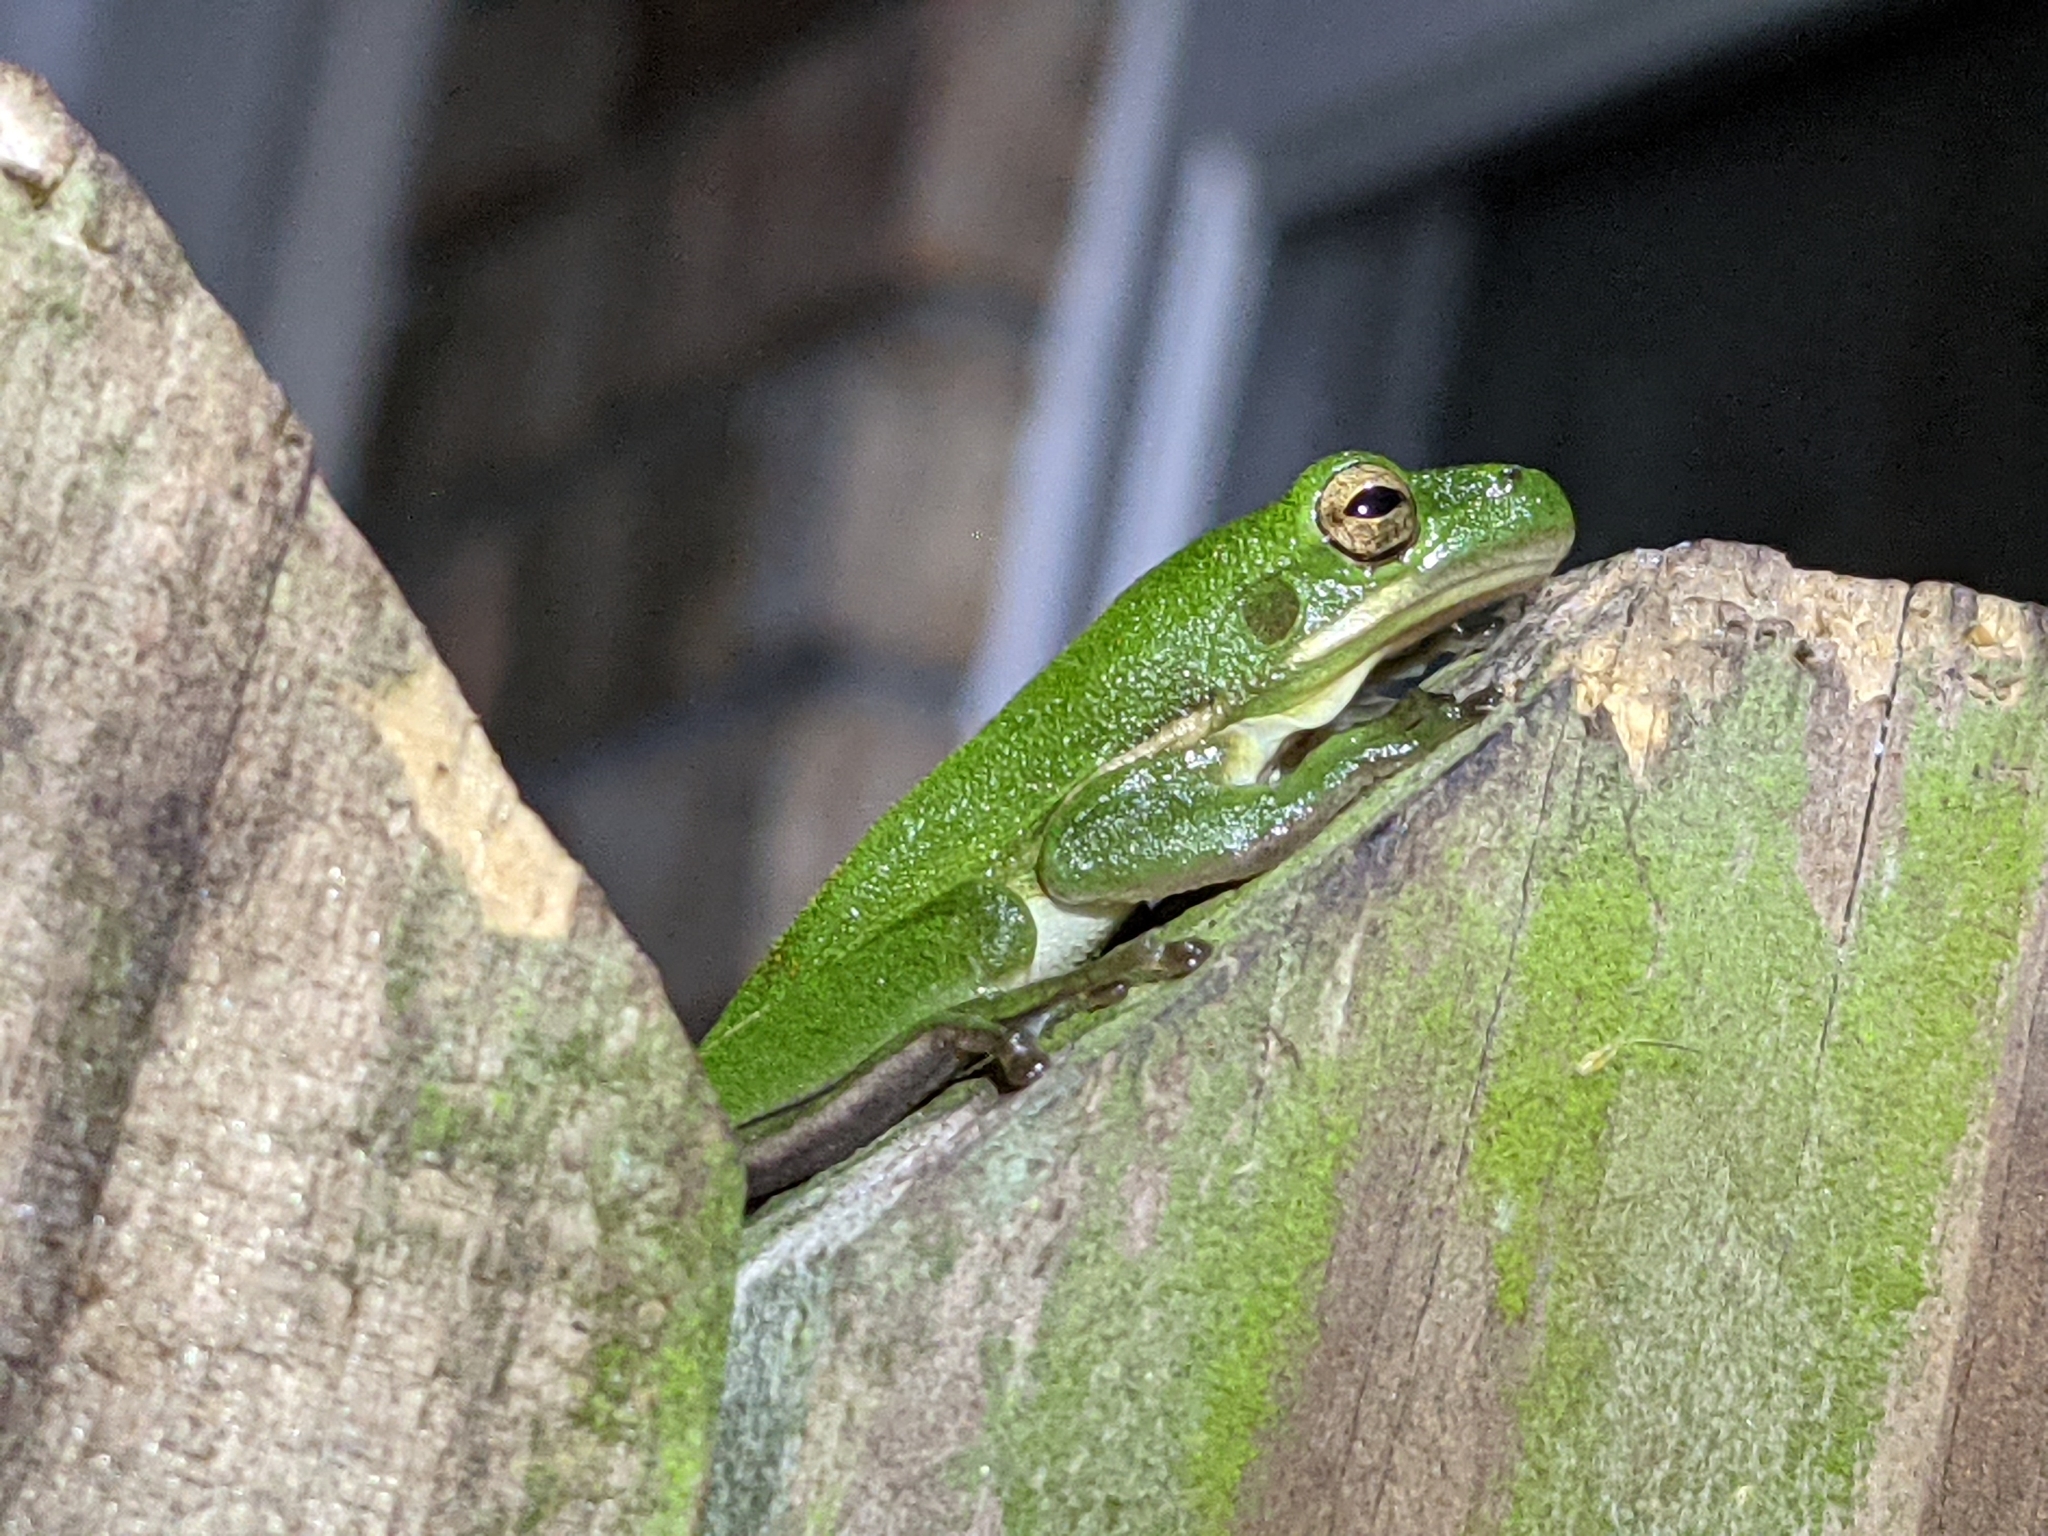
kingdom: Animalia
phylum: Chordata
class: Amphibia
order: Anura
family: Hylidae
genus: Dryophytes
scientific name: Dryophytes cinereus
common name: Green treefrog
